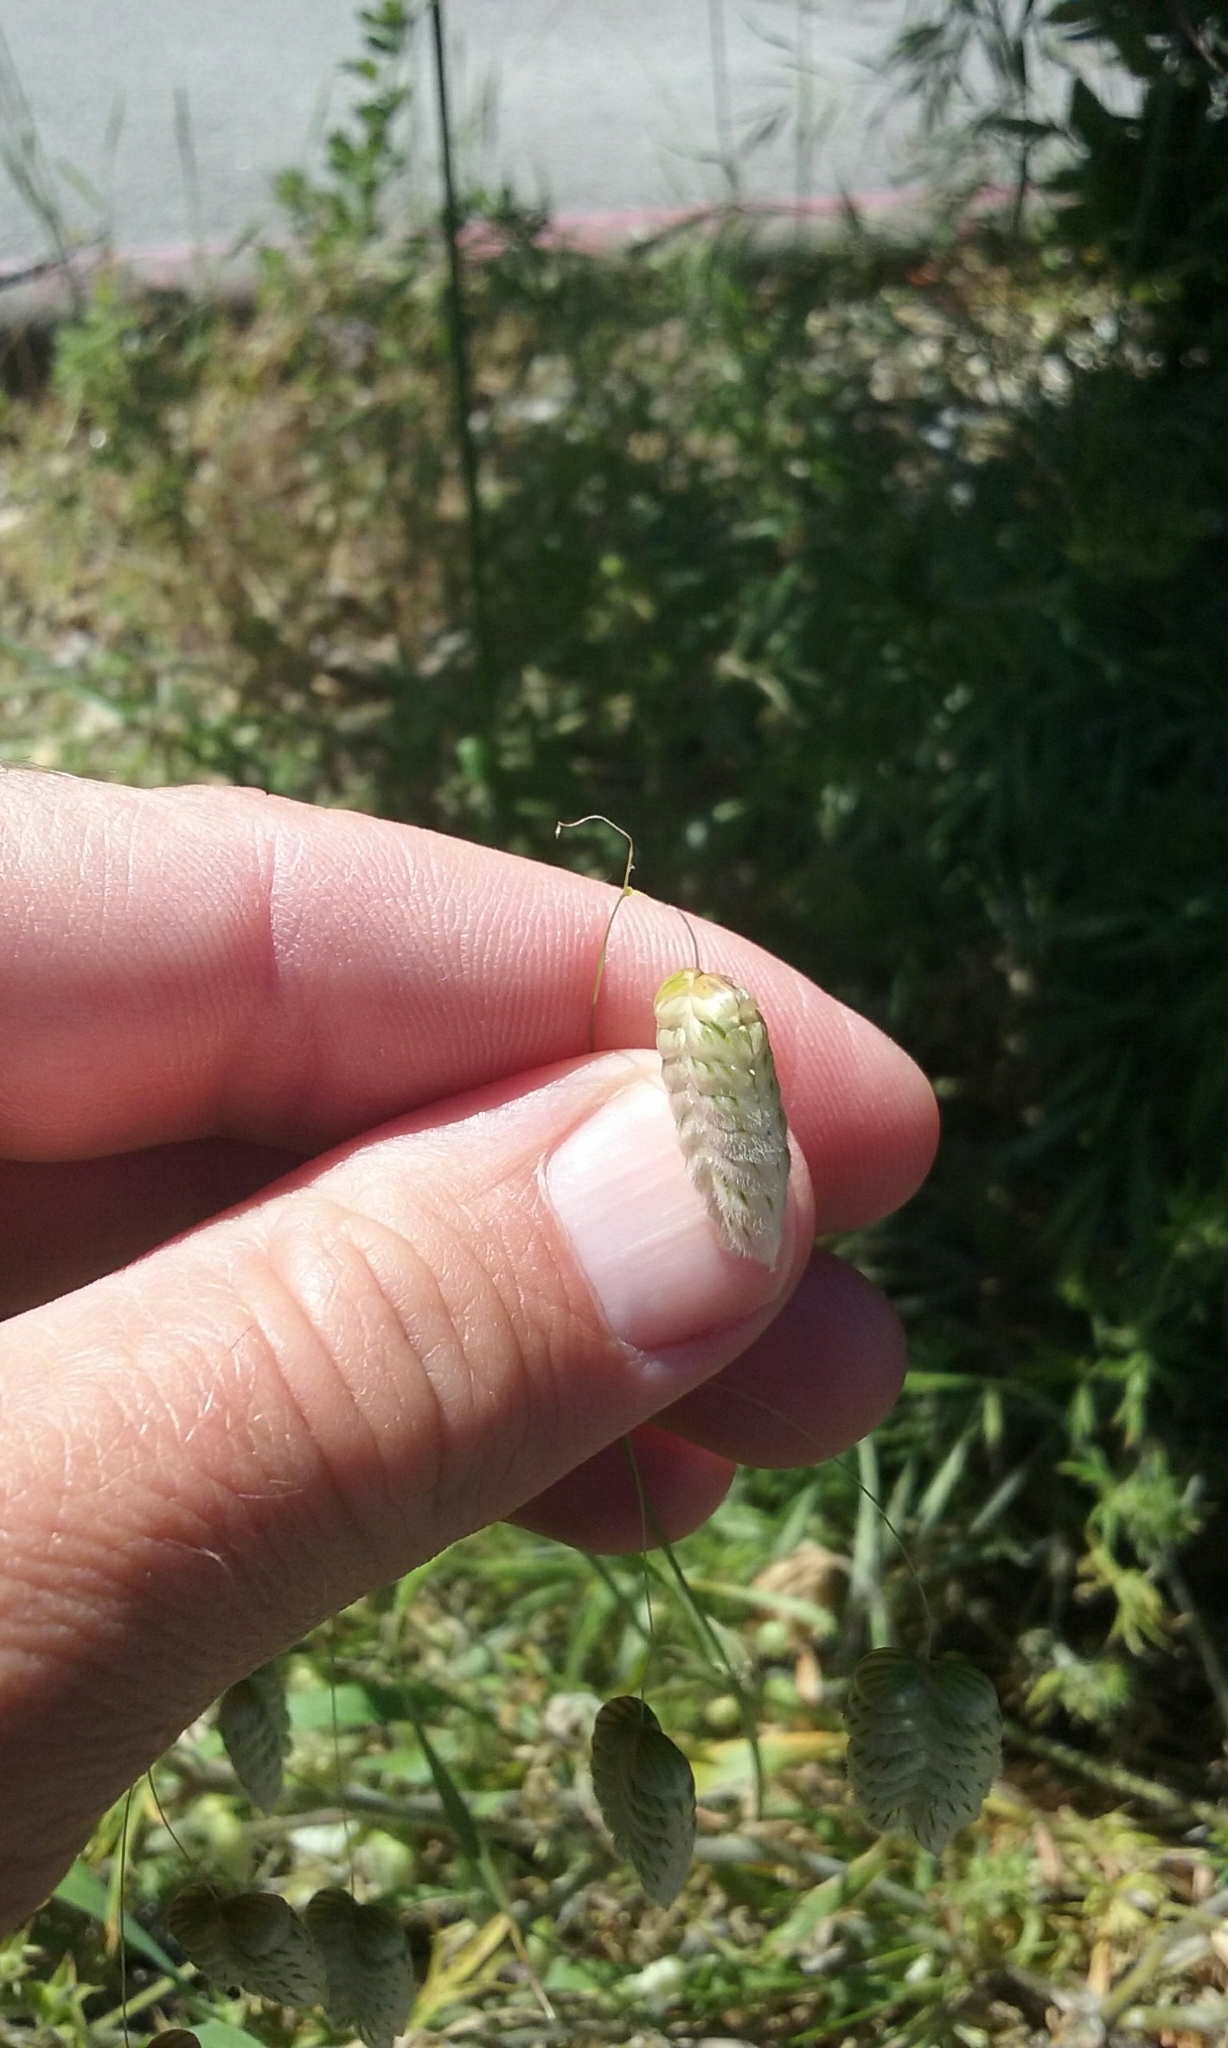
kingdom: Plantae
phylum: Tracheophyta
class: Liliopsida
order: Poales
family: Poaceae
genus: Briza
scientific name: Briza maxima
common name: Big quakinggrass
